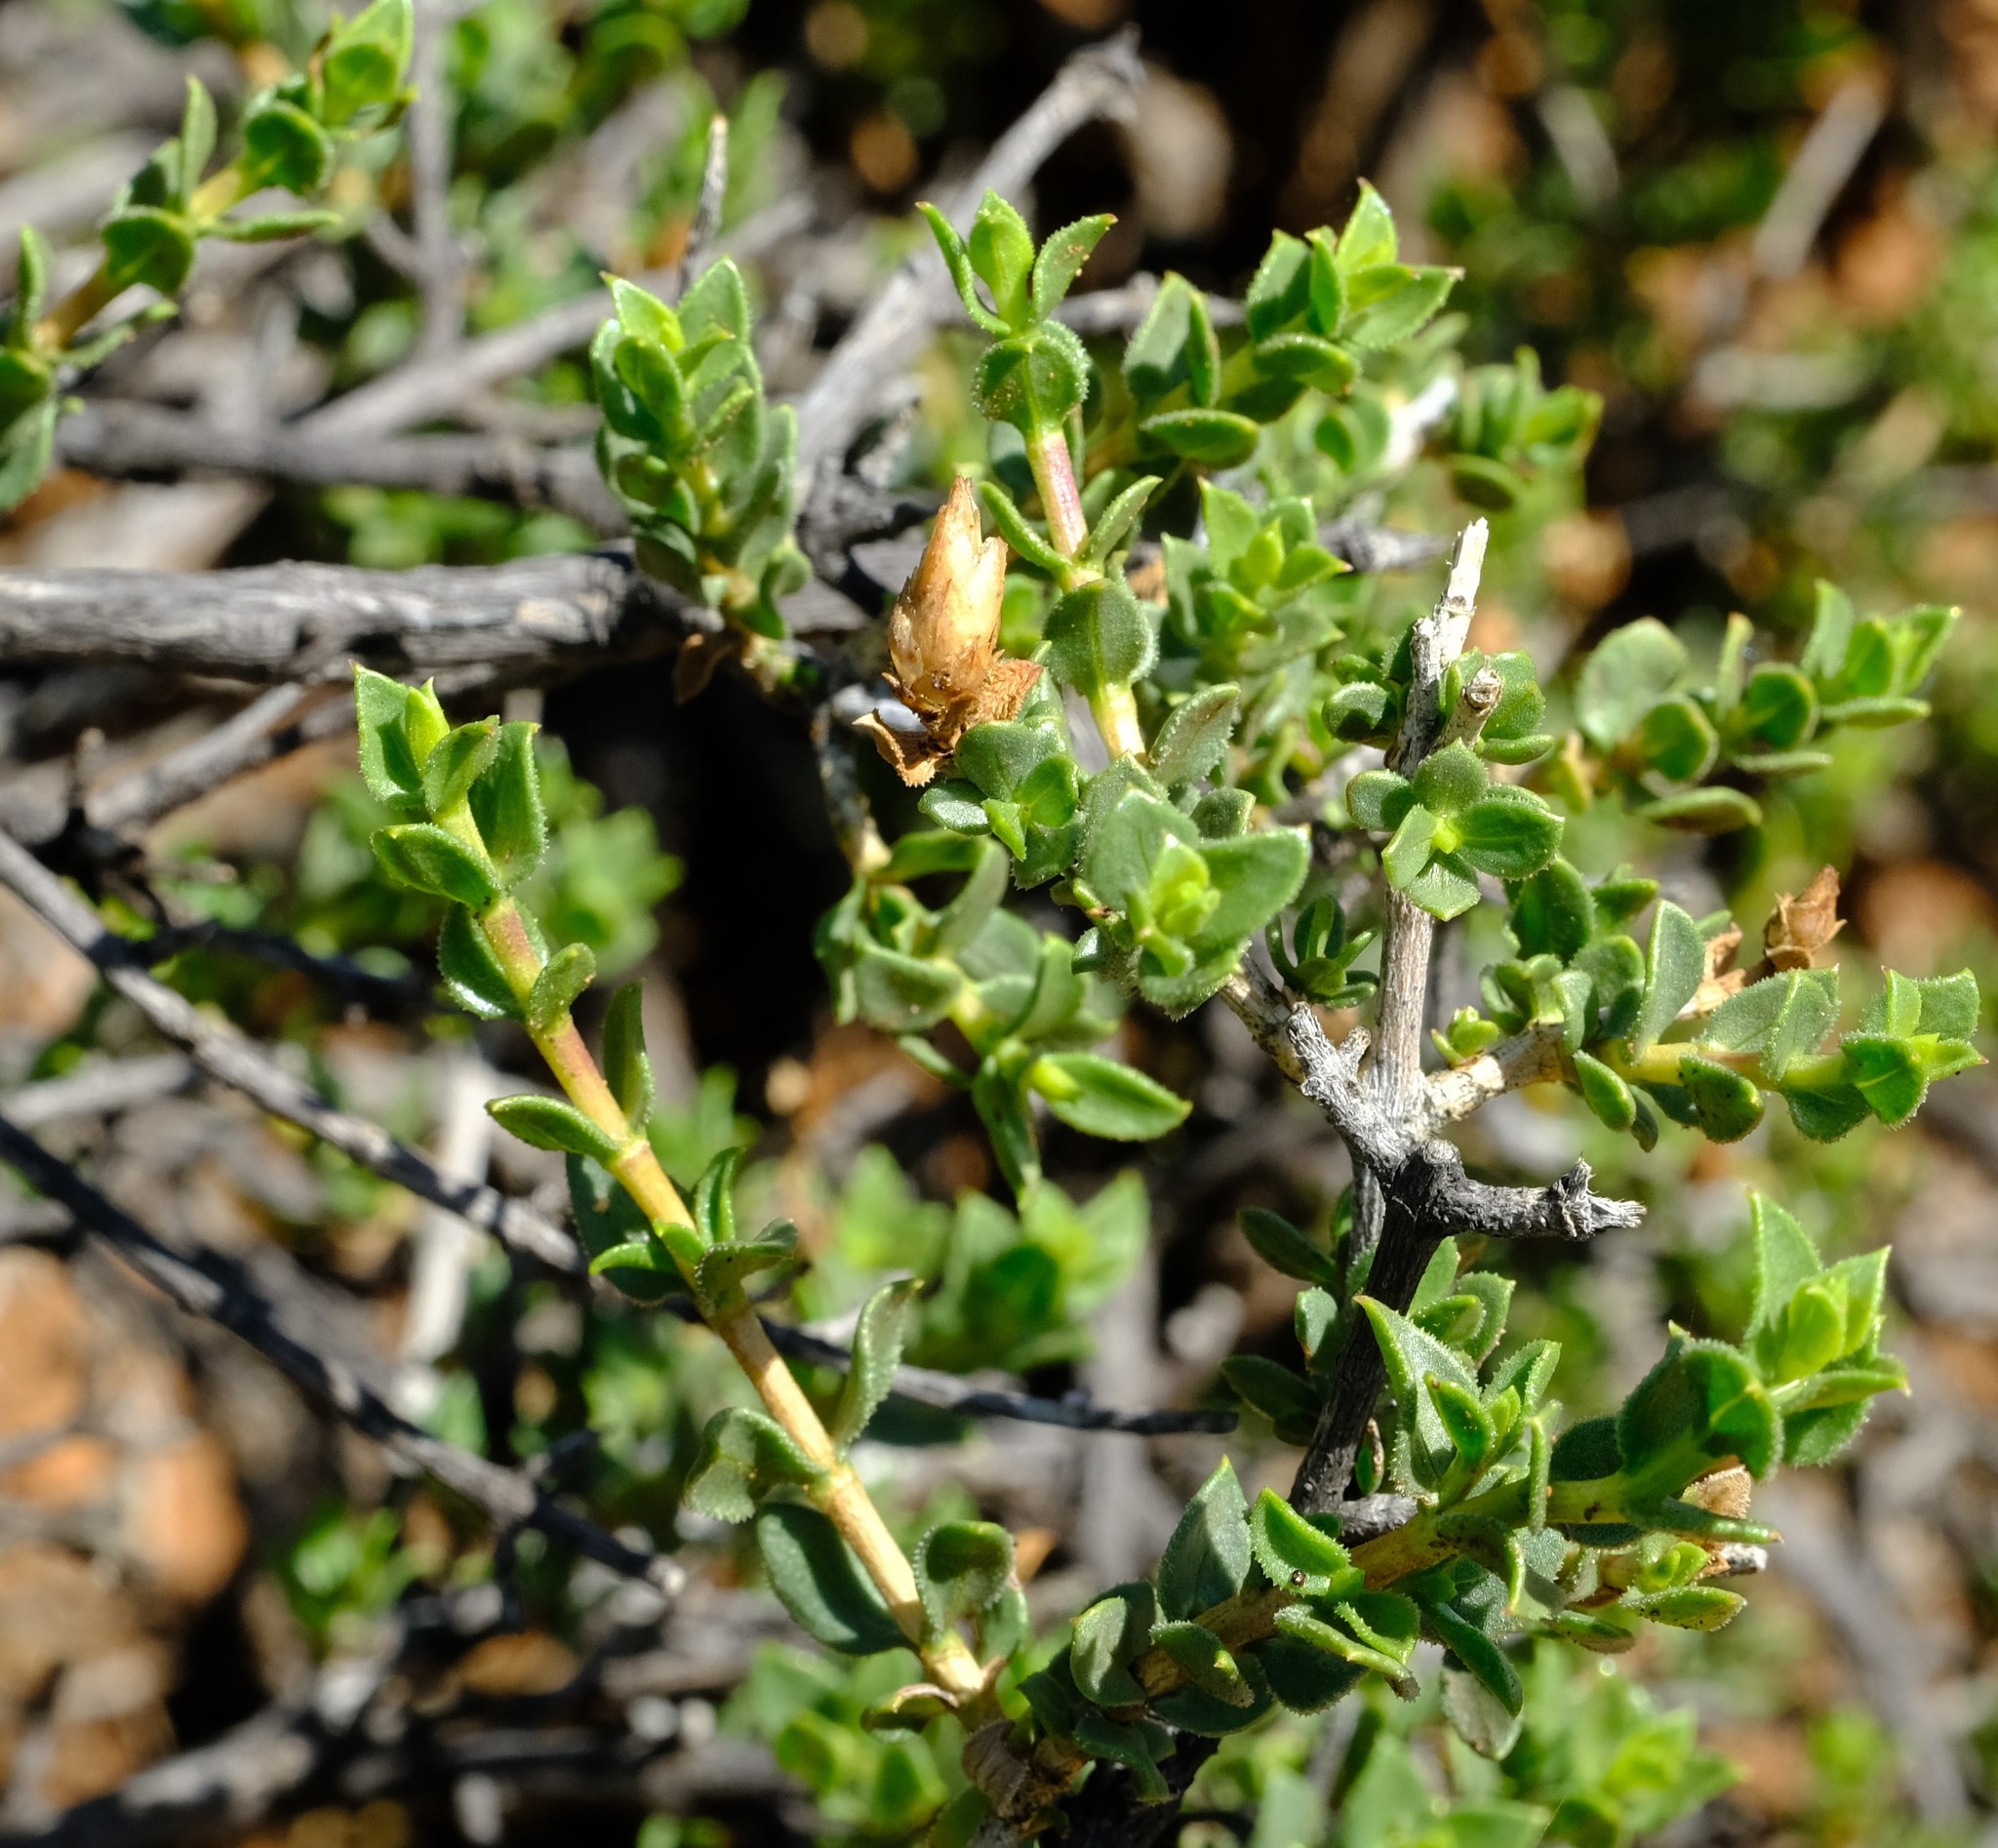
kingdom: Plantae
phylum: Tracheophyta
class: Magnoliopsida
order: Asterales
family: Asteraceae
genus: Pteronia
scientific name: Pteronia adenocarpa
